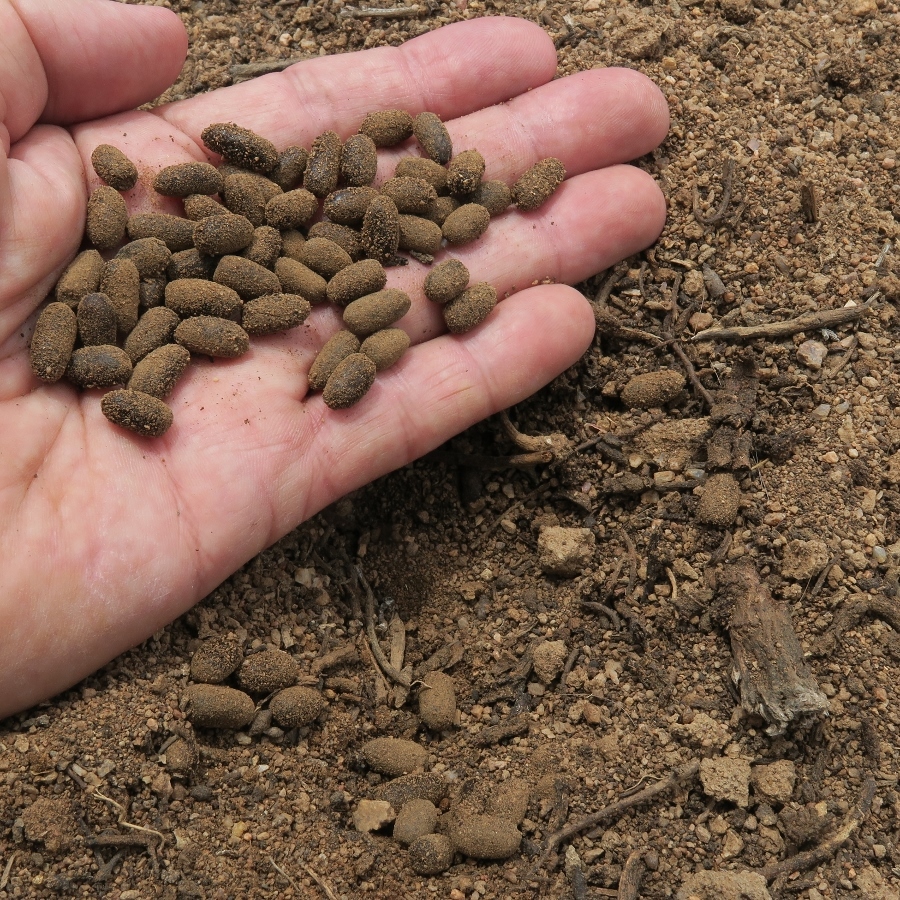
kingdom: Animalia
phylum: Chordata
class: Mammalia
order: Artiodactyla
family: Bovidae
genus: Raphicerus
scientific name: Raphicerus campestris
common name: Steenbok
